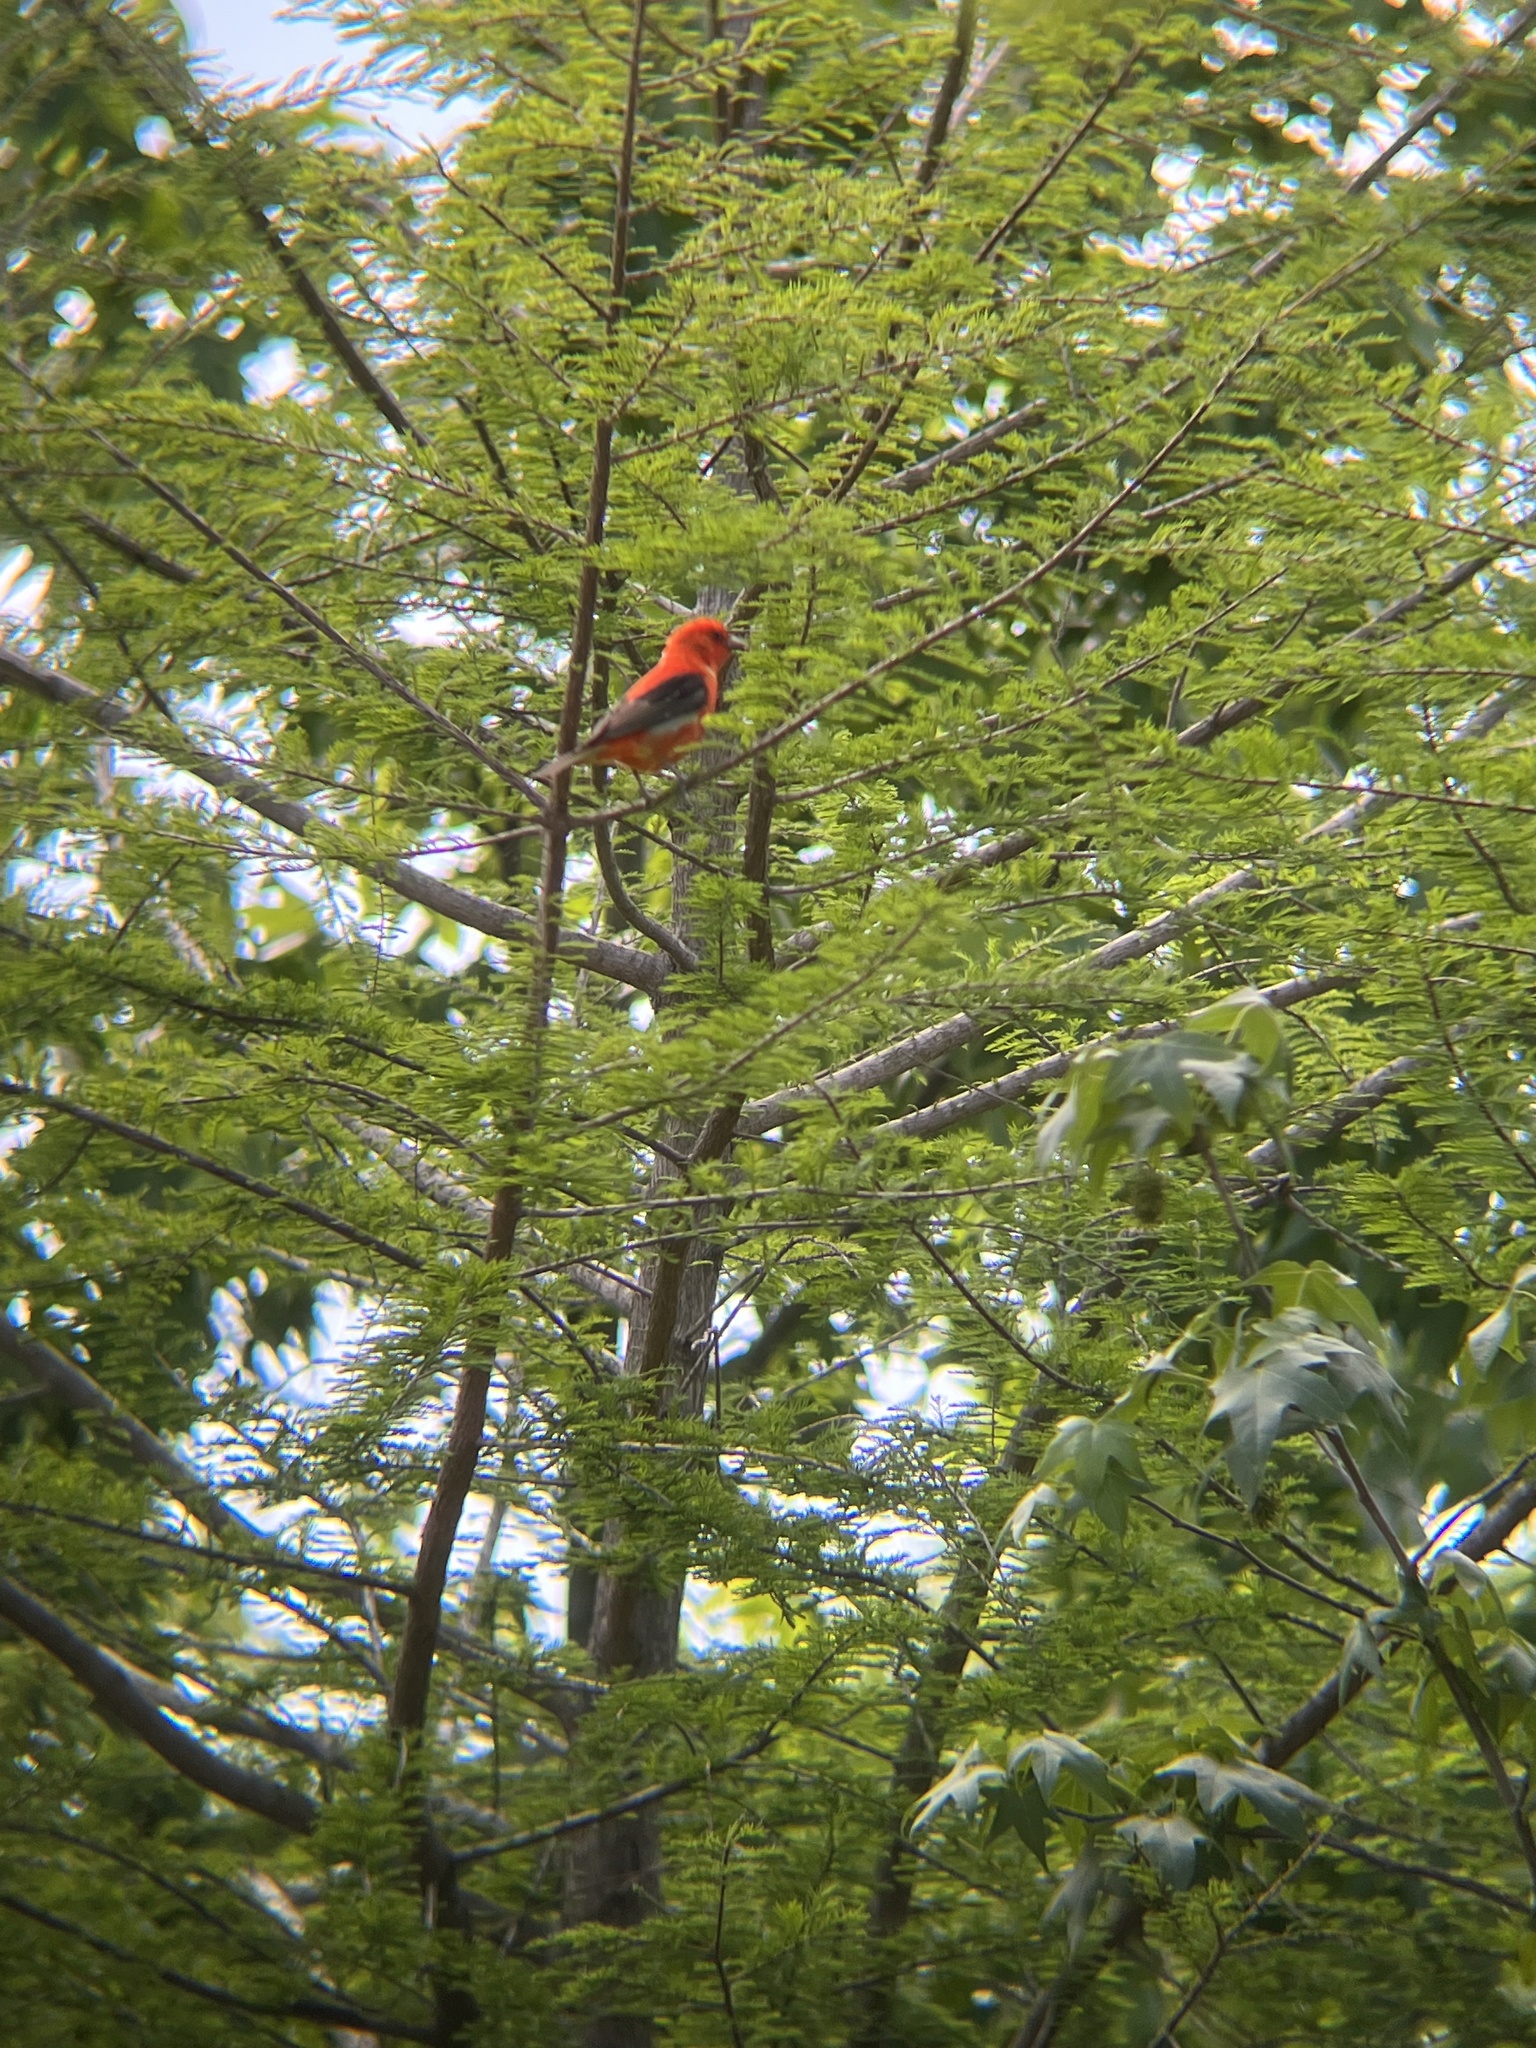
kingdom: Animalia
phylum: Chordata
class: Aves
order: Passeriformes
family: Cardinalidae
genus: Piranga
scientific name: Piranga olivacea
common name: Scarlet tanager
